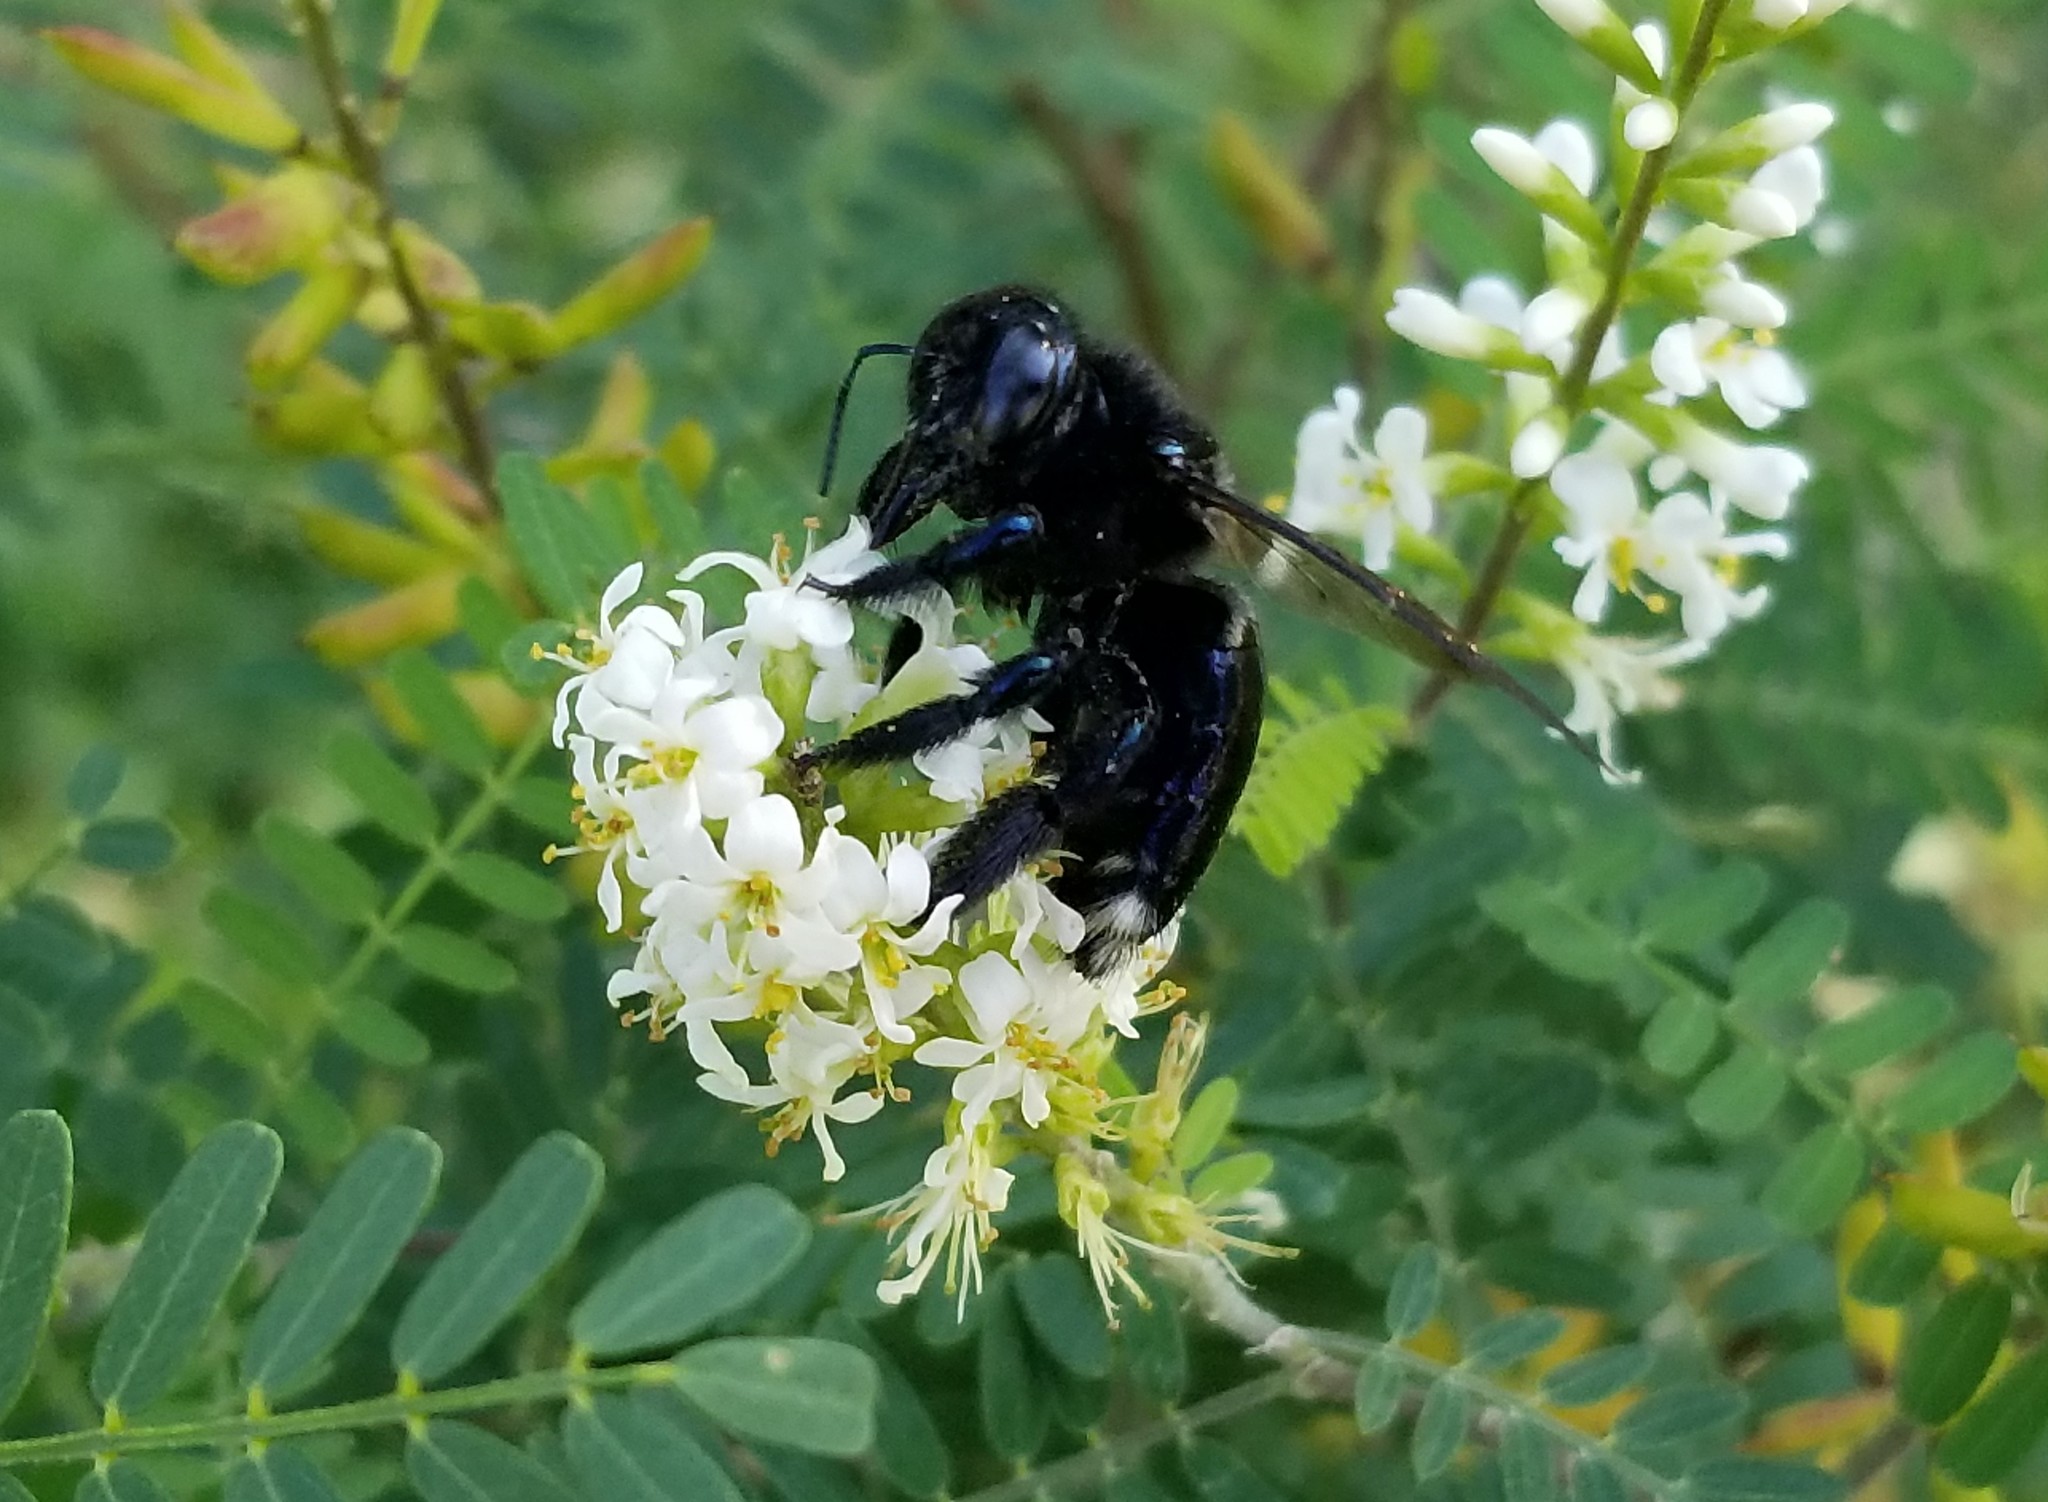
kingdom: Animalia
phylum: Arthropoda
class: Insecta
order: Hymenoptera
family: Apidae
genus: Xylocopa
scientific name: Xylocopa micans
